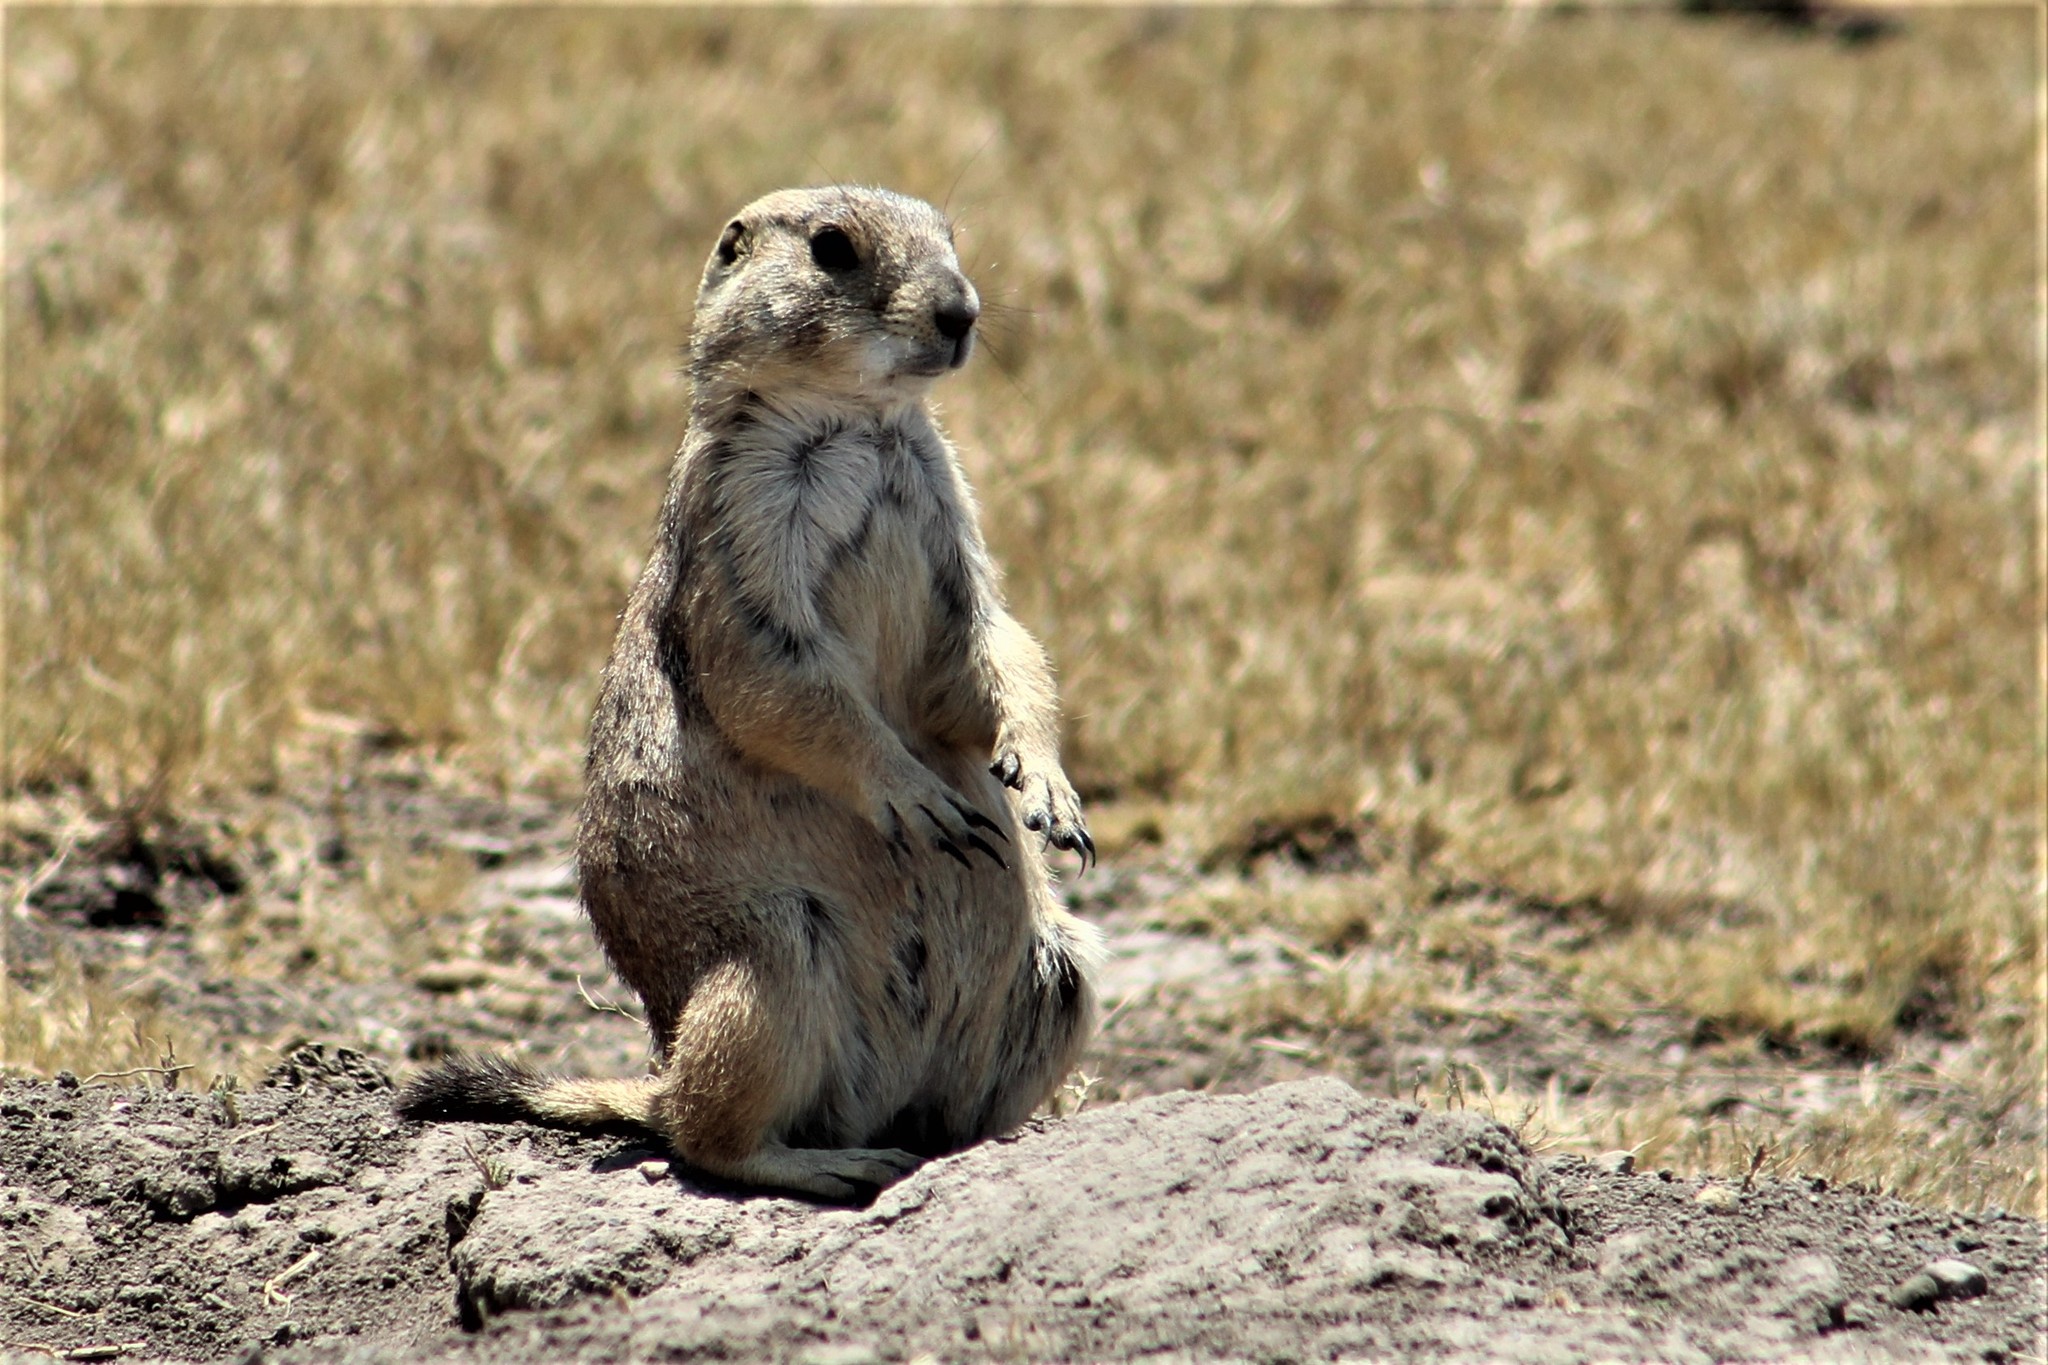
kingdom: Animalia
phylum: Chordata
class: Mammalia
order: Rodentia
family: Sciuridae
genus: Cynomys
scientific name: Cynomys mexicanus
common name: Mexican prairie dog
